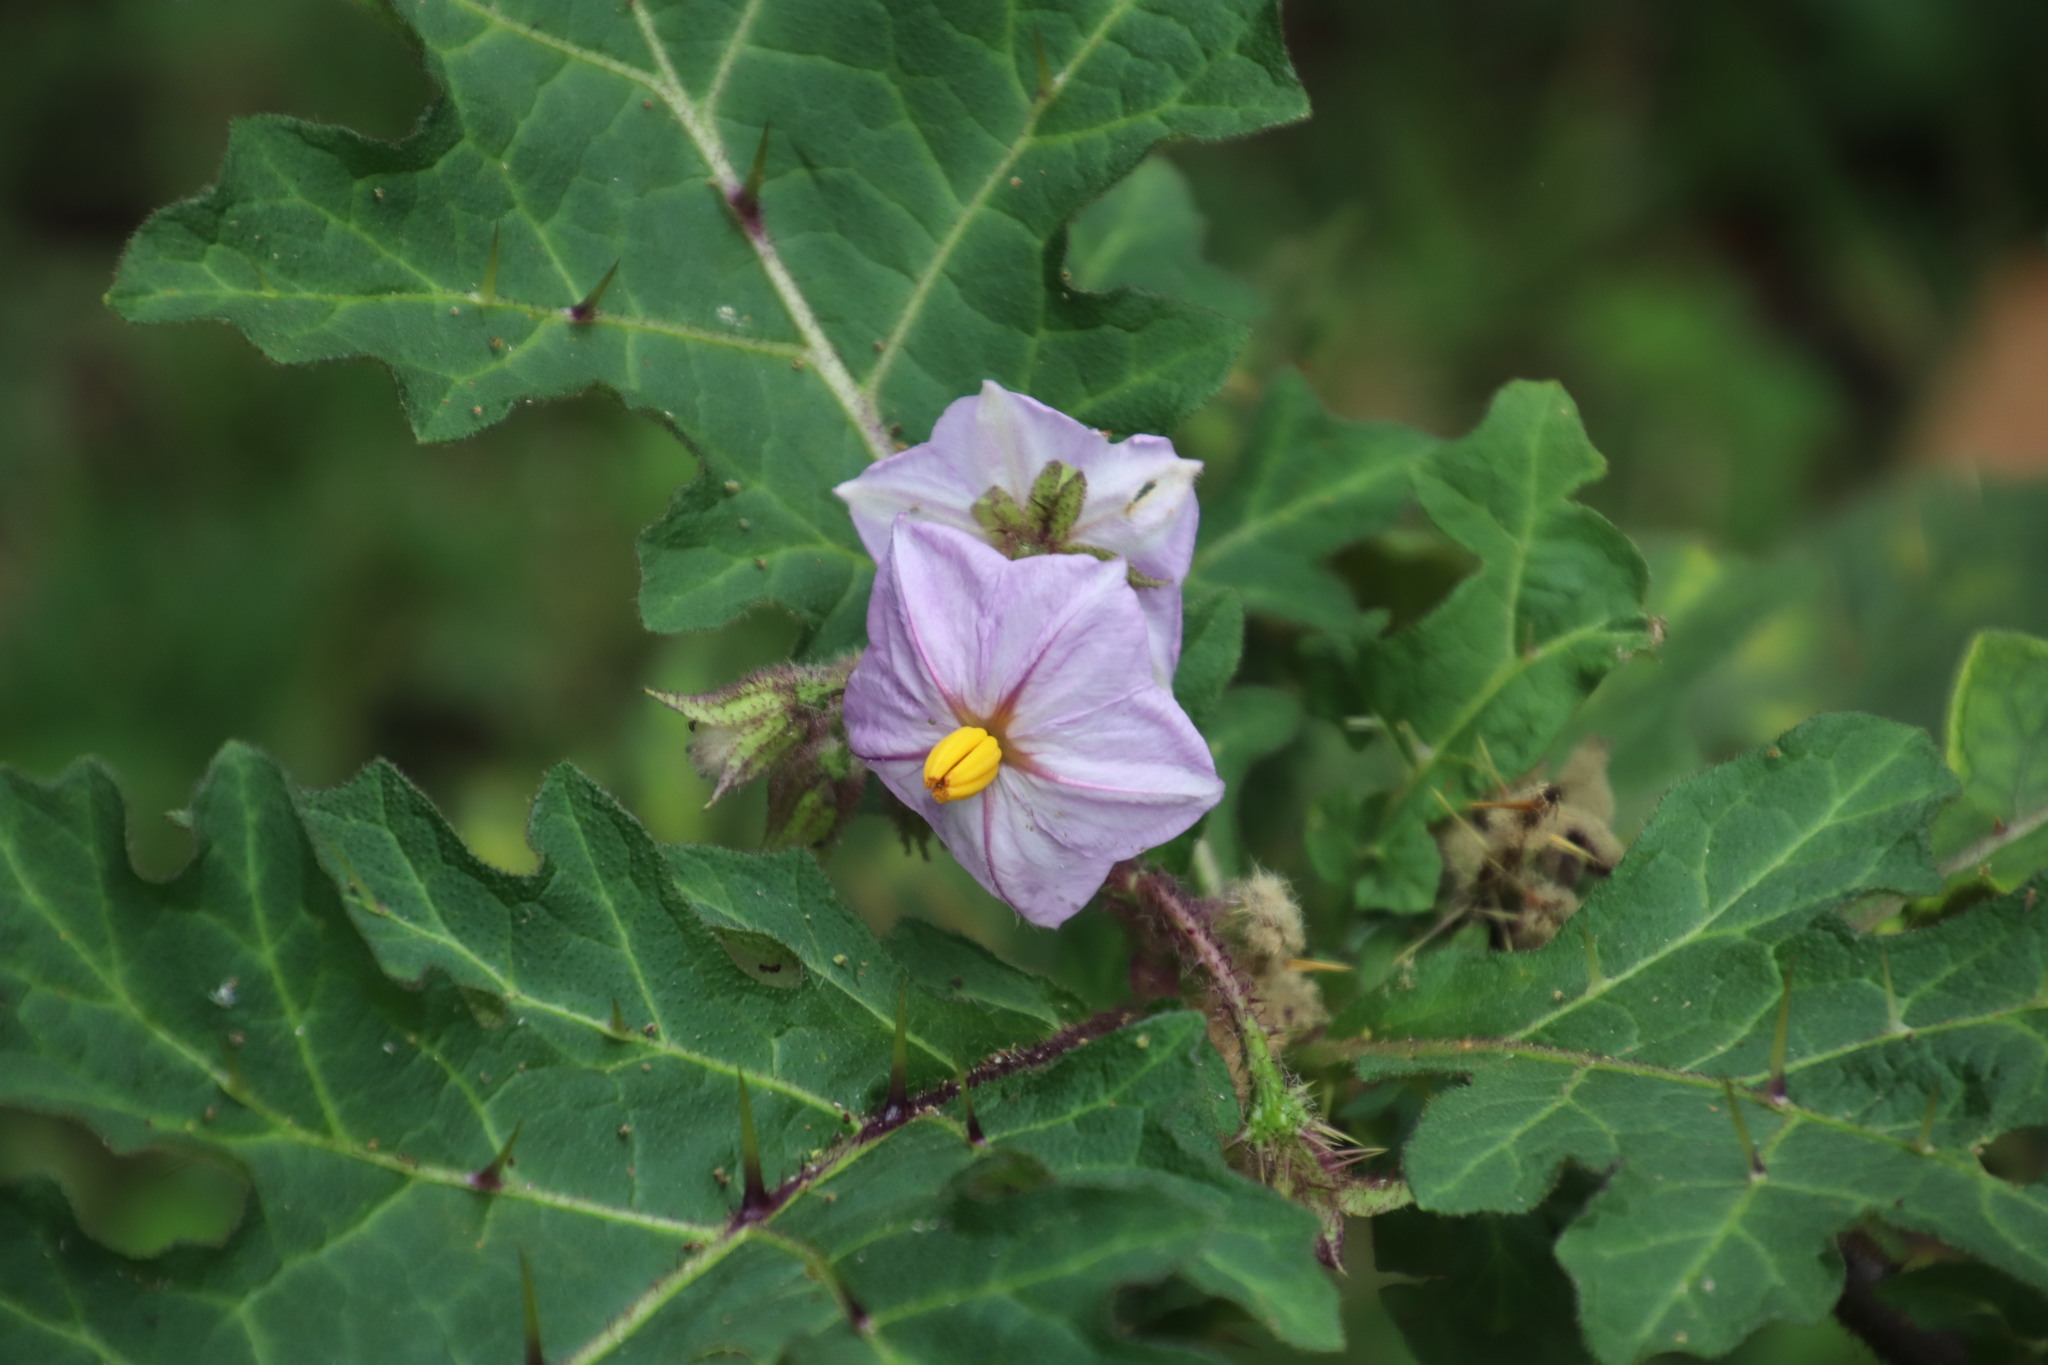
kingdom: Plantae
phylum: Tracheophyta
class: Magnoliopsida
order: Solanales
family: Solanaceae
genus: Solanum
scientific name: Solanum dasyphyllum
